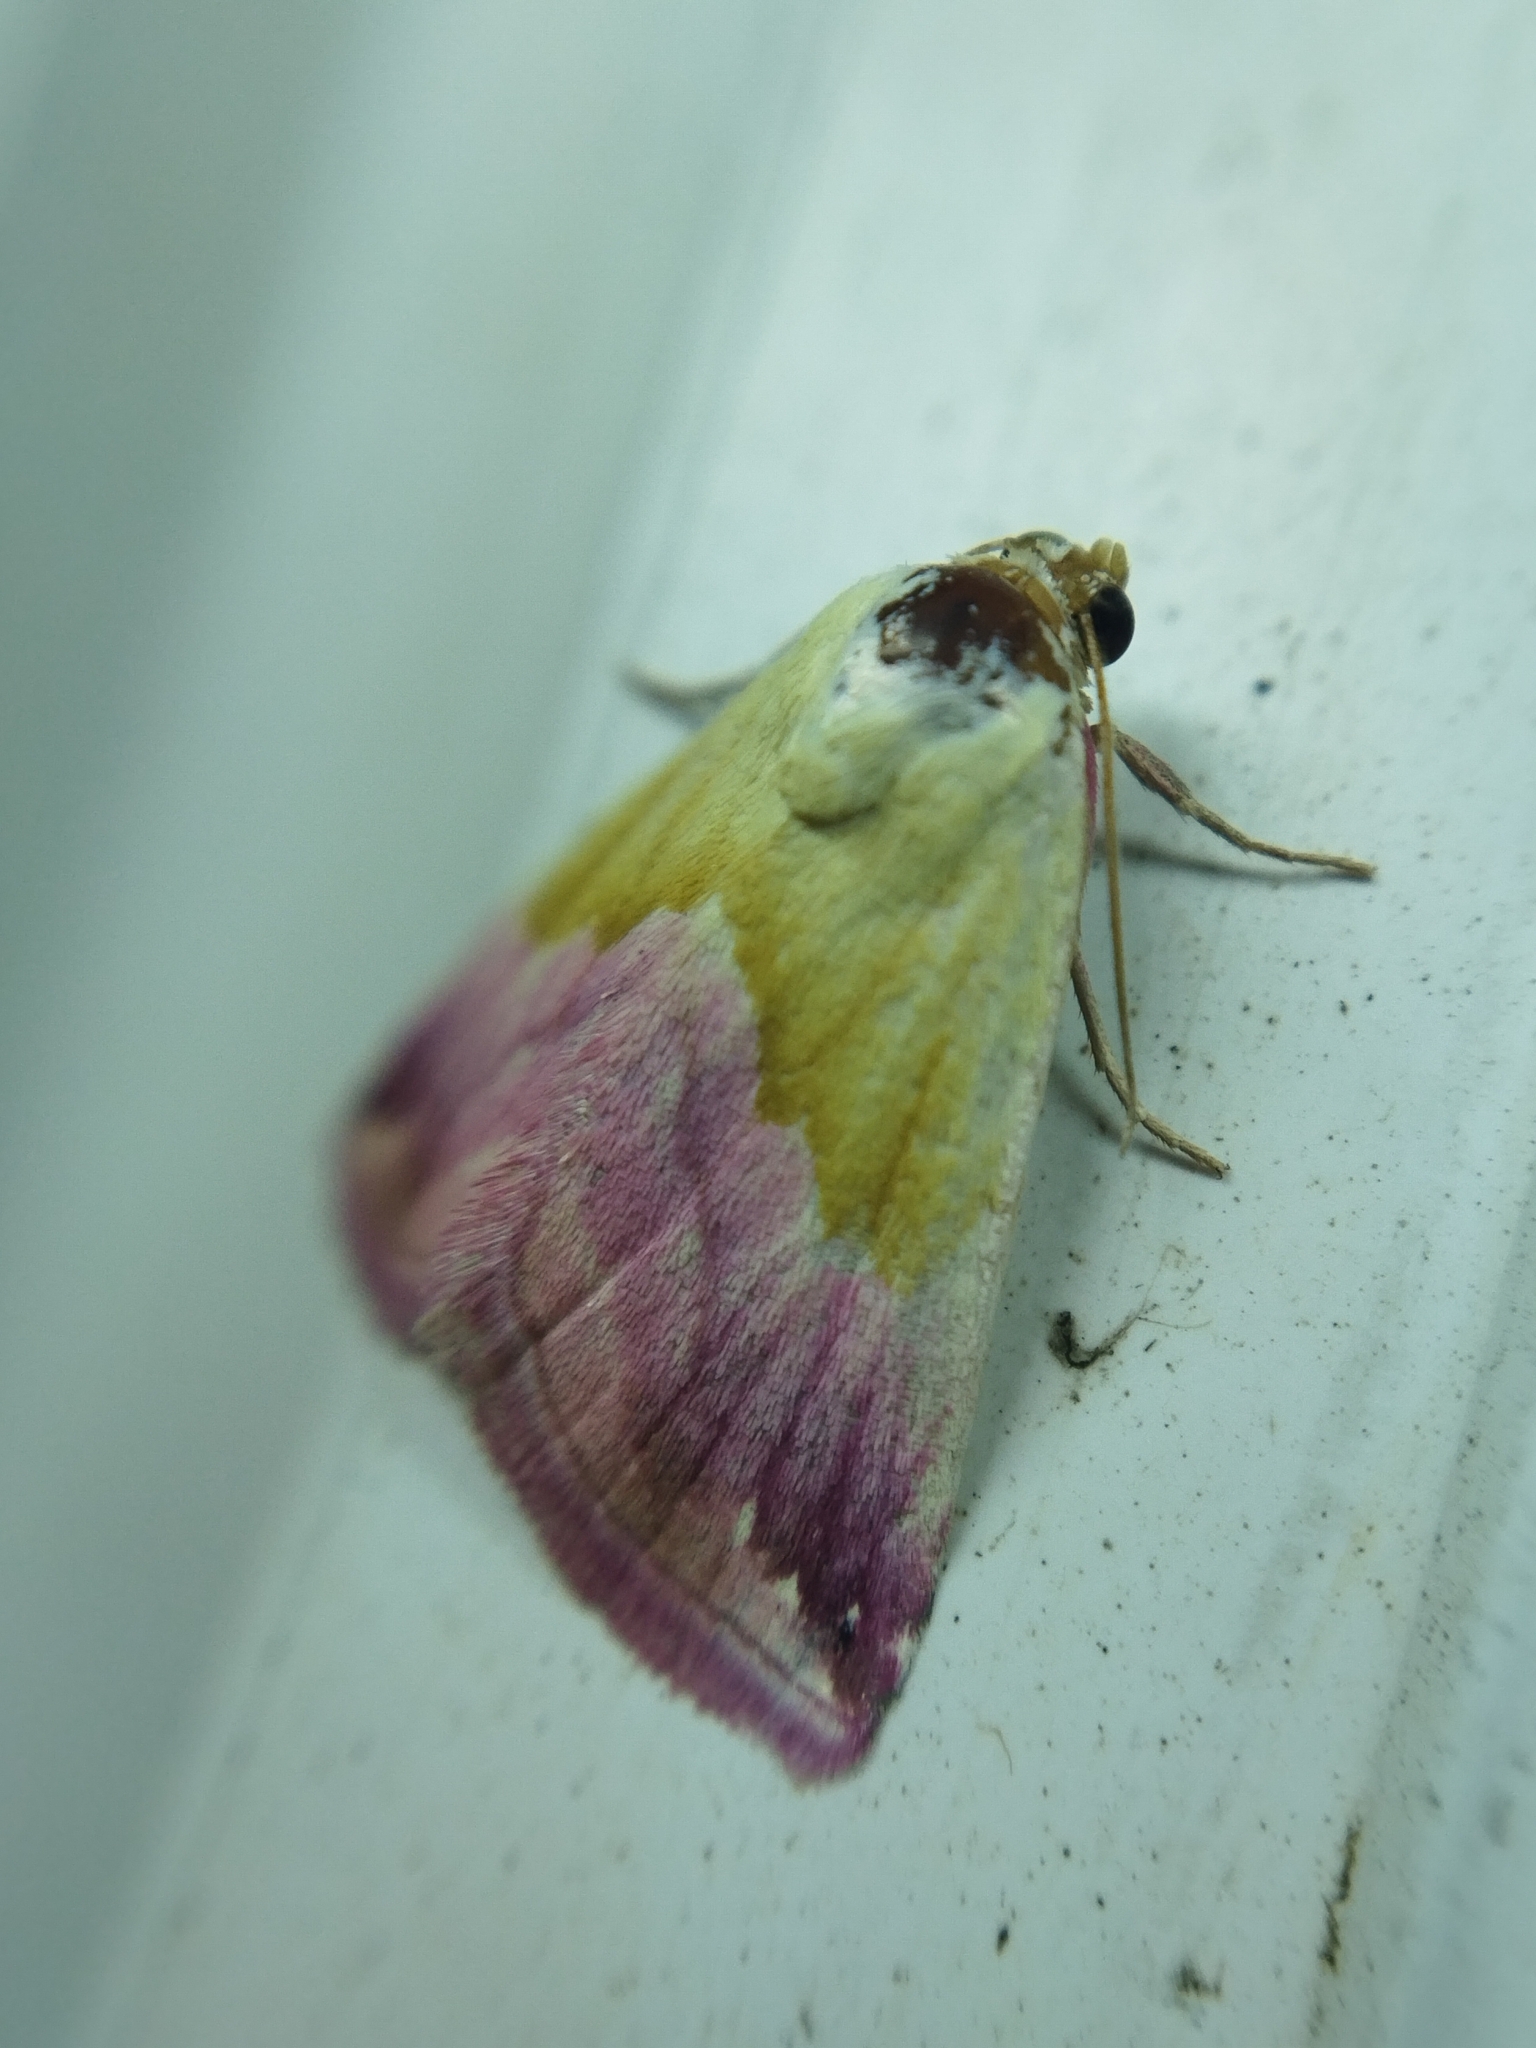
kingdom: Animalia
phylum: Arthropoda
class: Insecta
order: Lepidoptera
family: Noctuidae
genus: Eublemma
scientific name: Eublemma purpurina
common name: Beautiful marbled
